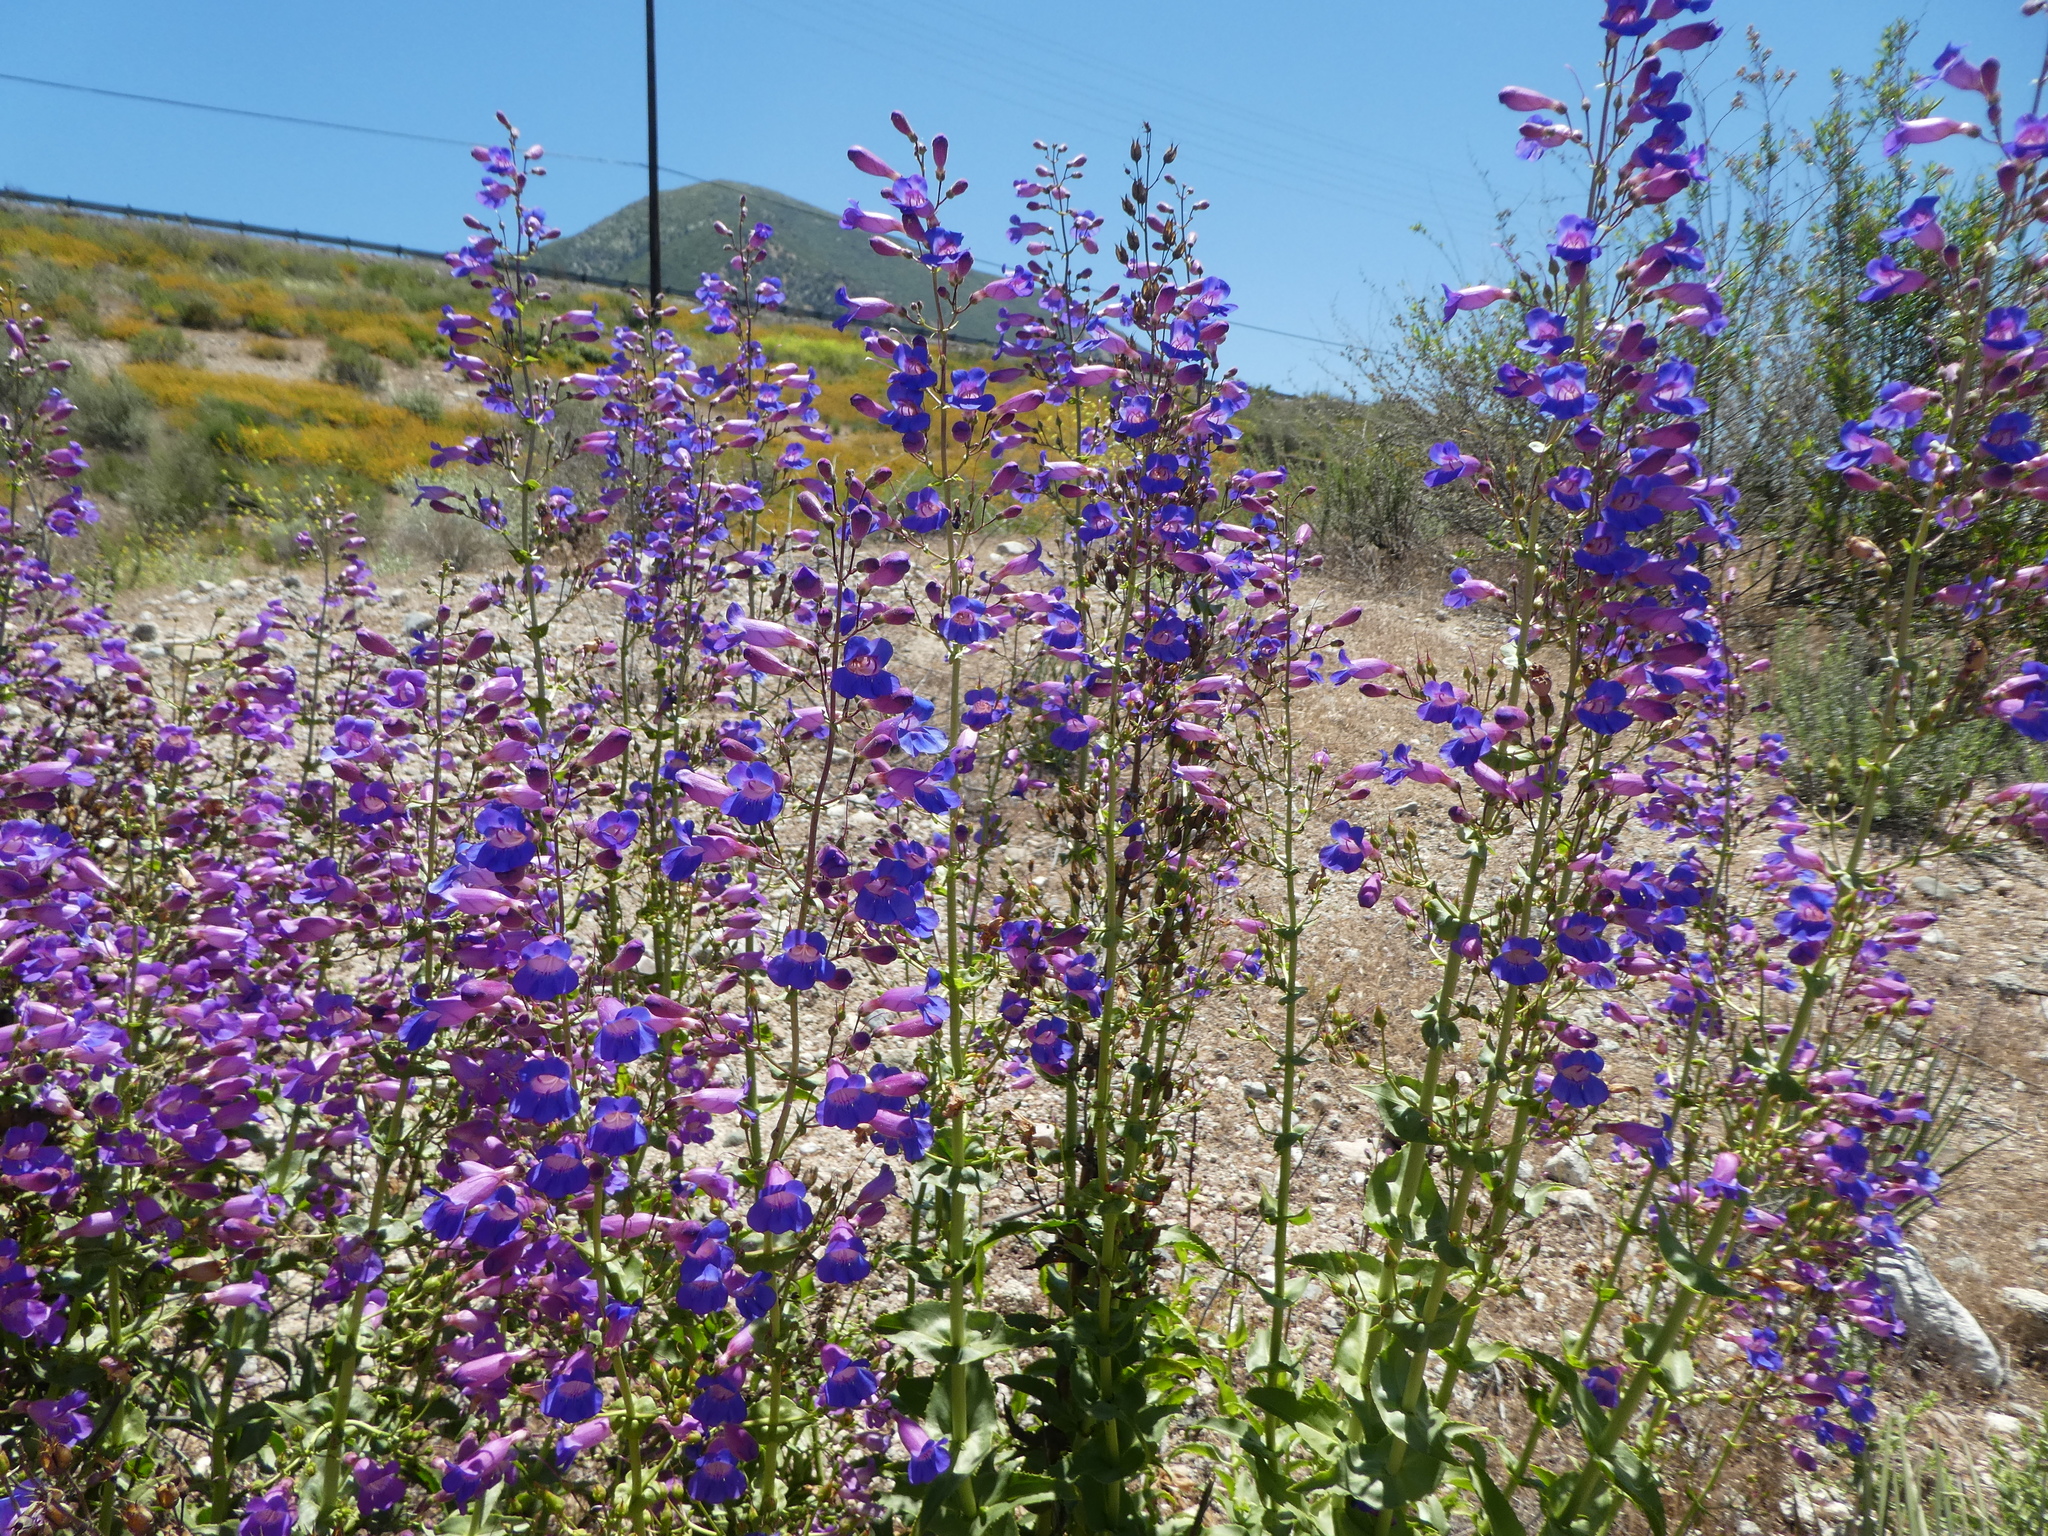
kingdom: Plantae
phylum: Tracheophyta
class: Magnoliopsida
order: Lamiales
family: Plantaginaceae
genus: Penstemon
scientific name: Penstemon spectabilis
